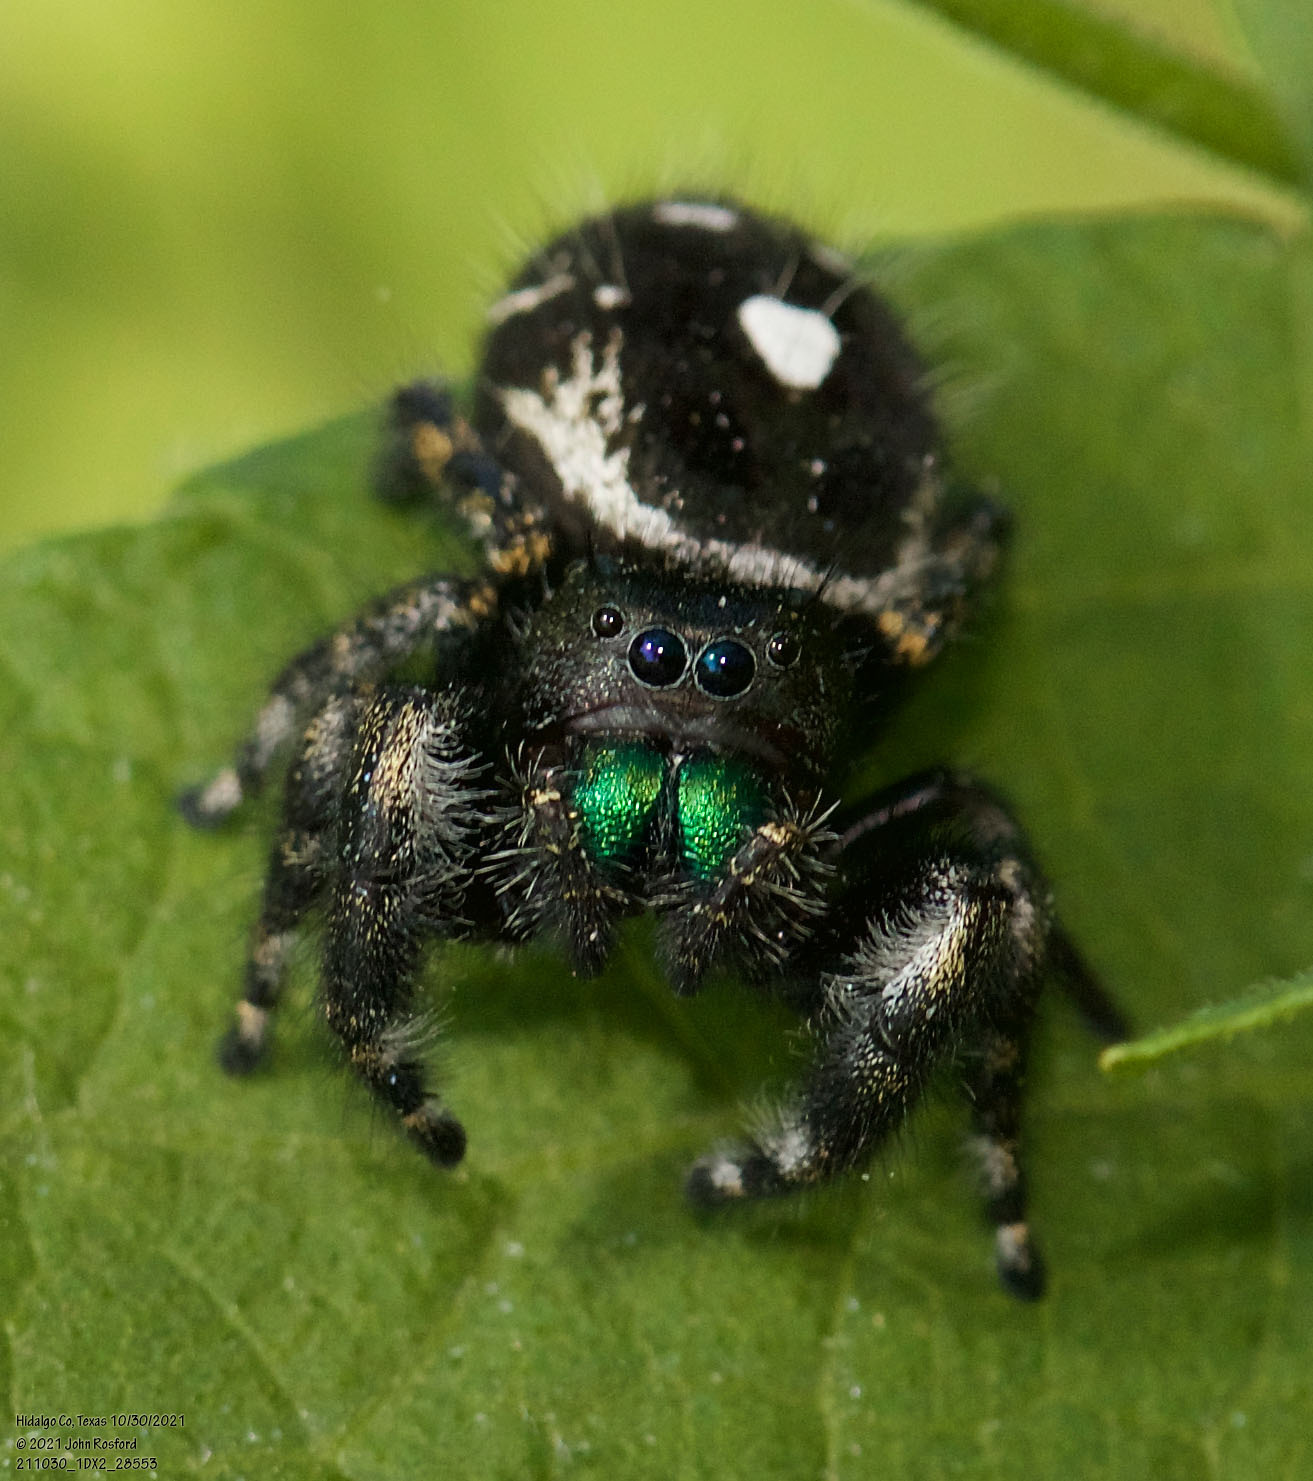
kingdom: Animalia
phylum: Arthropoda
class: Arachnida
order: Araneae
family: Salticidae
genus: Phidippus
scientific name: Phidippus audax
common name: Bold jumper
